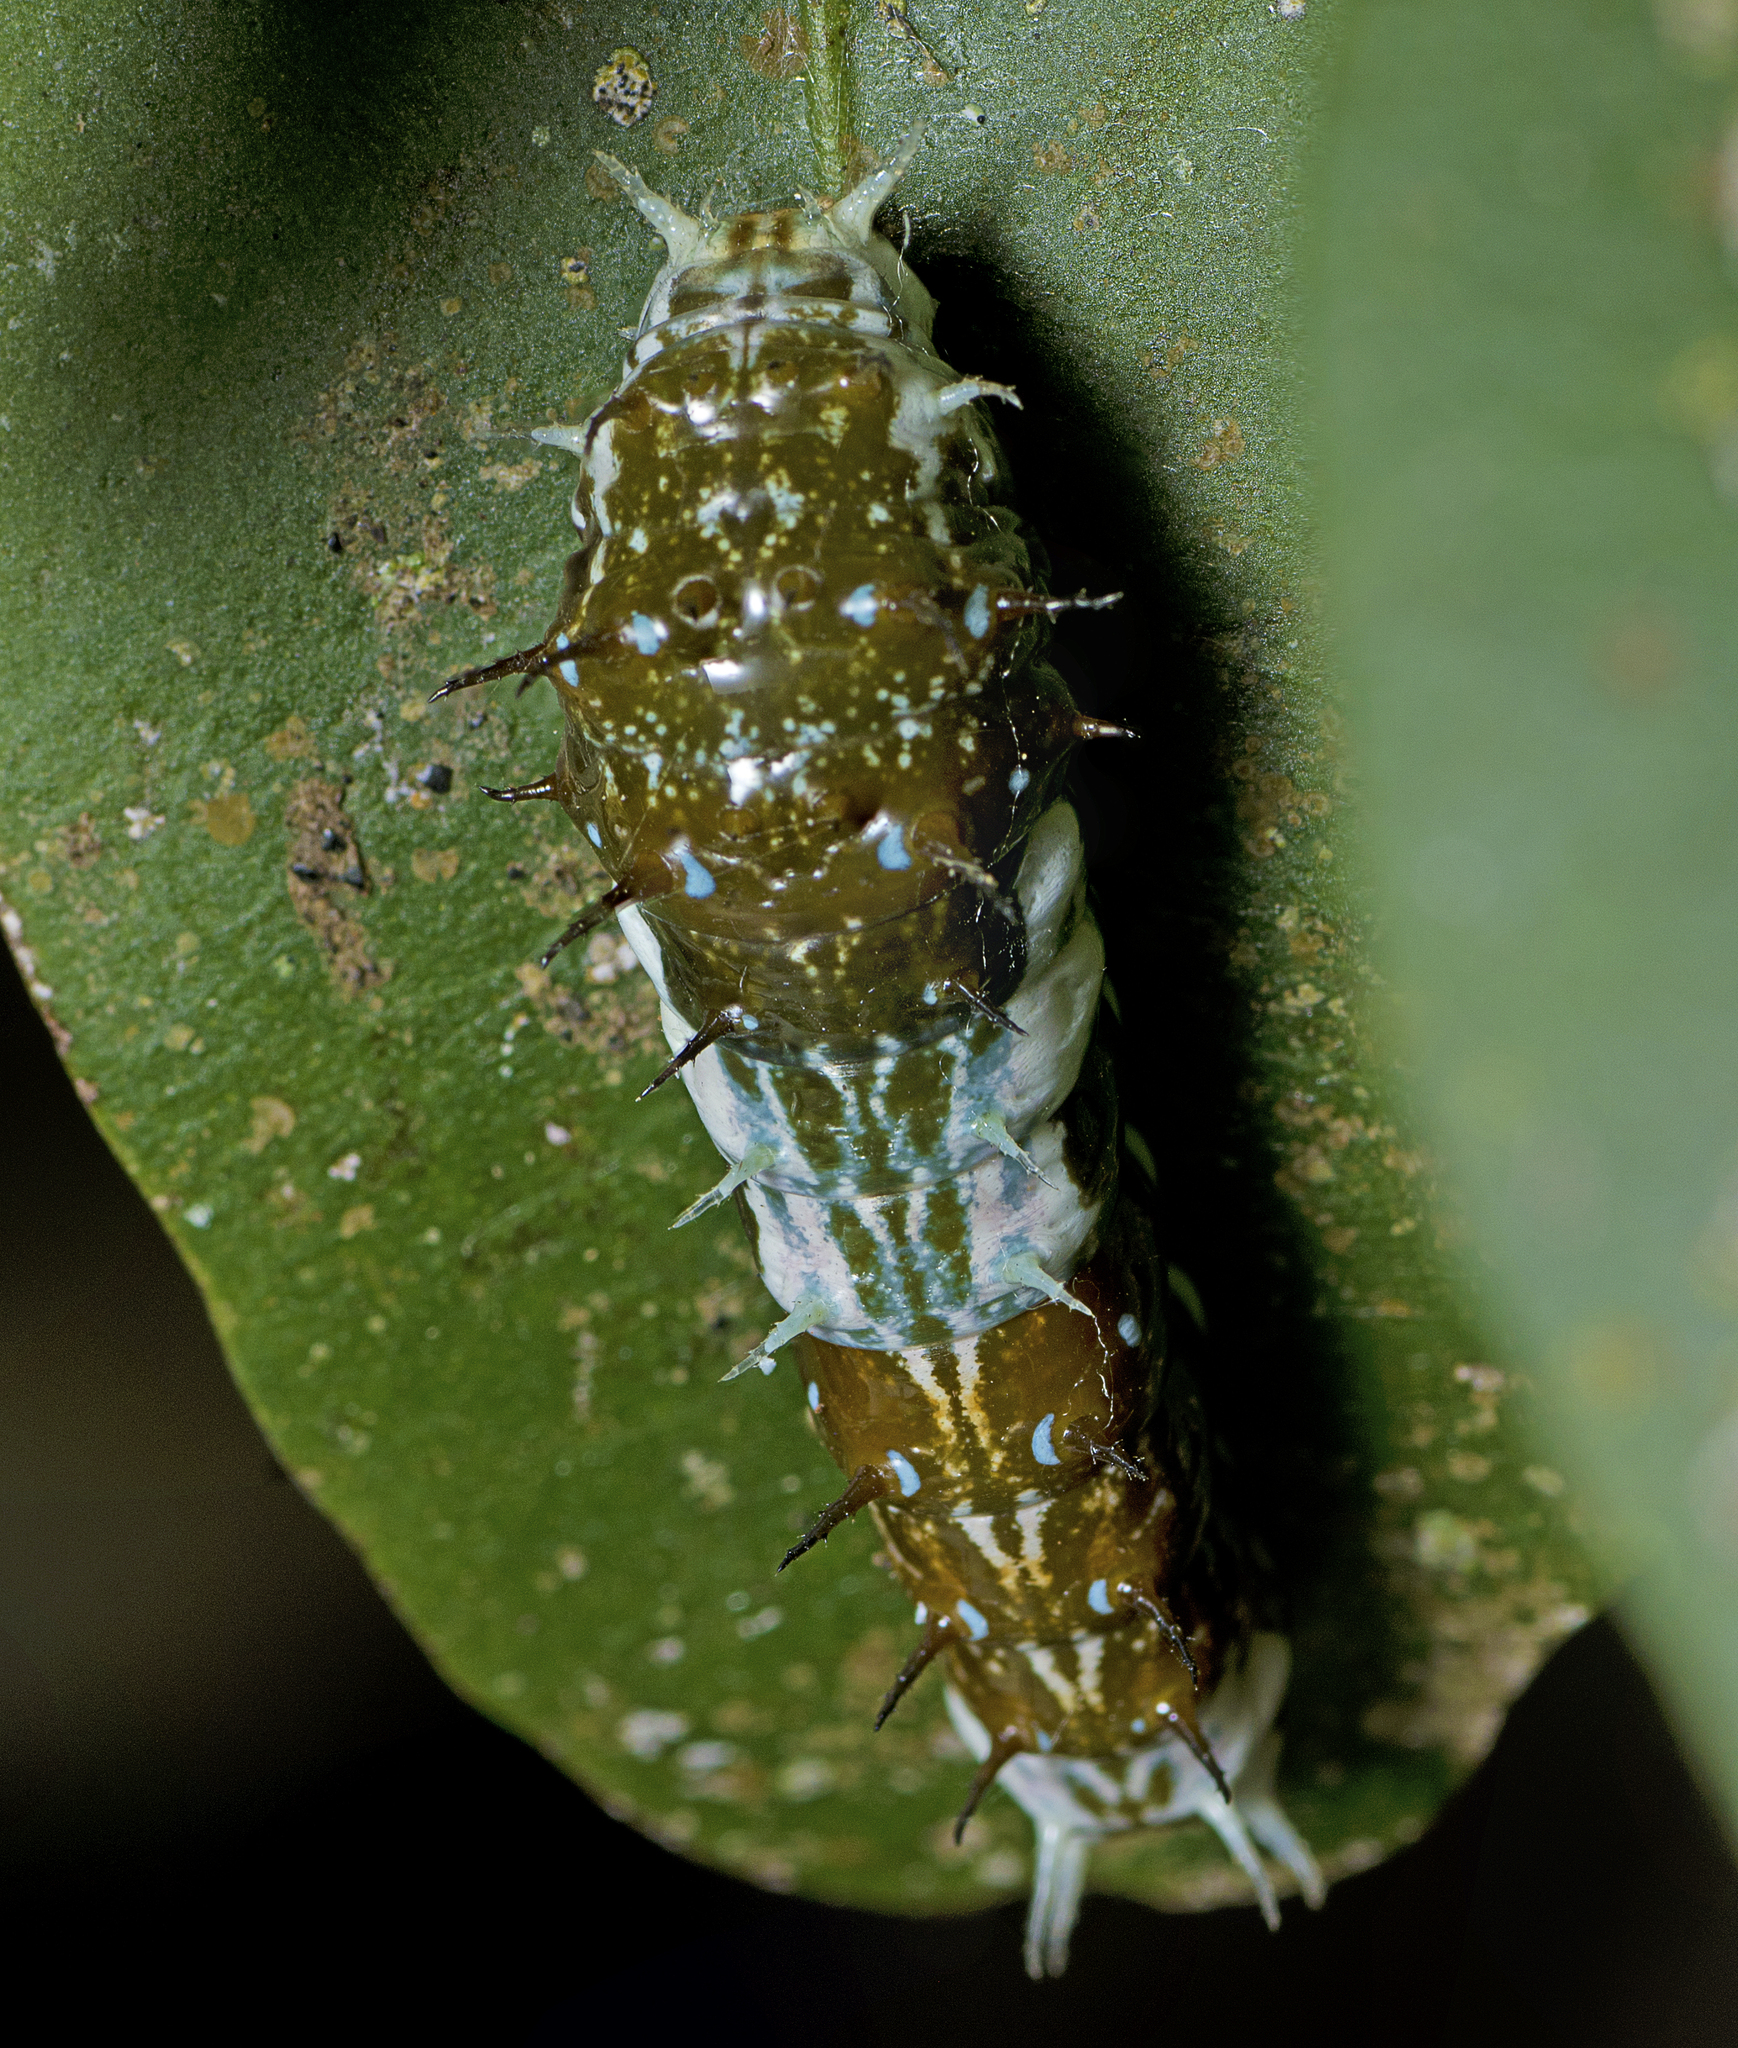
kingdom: Animalia
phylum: Arthropoda
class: Insecta
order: Lepidoptera
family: Papilionidae
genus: Papilio
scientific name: Papilio aegeus
